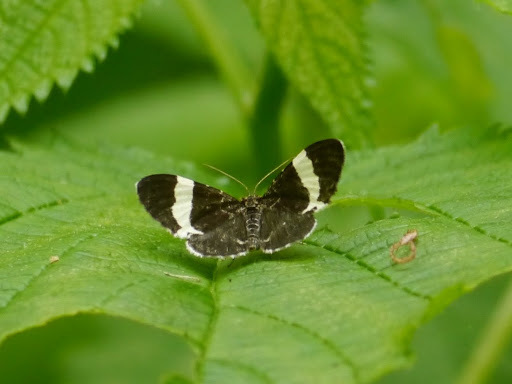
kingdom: Animalia
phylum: Arthropoda
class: Insecta
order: Lepidoptera
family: Geometridae
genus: Trichodezia
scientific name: Trichodezia albovittata
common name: White striped black
